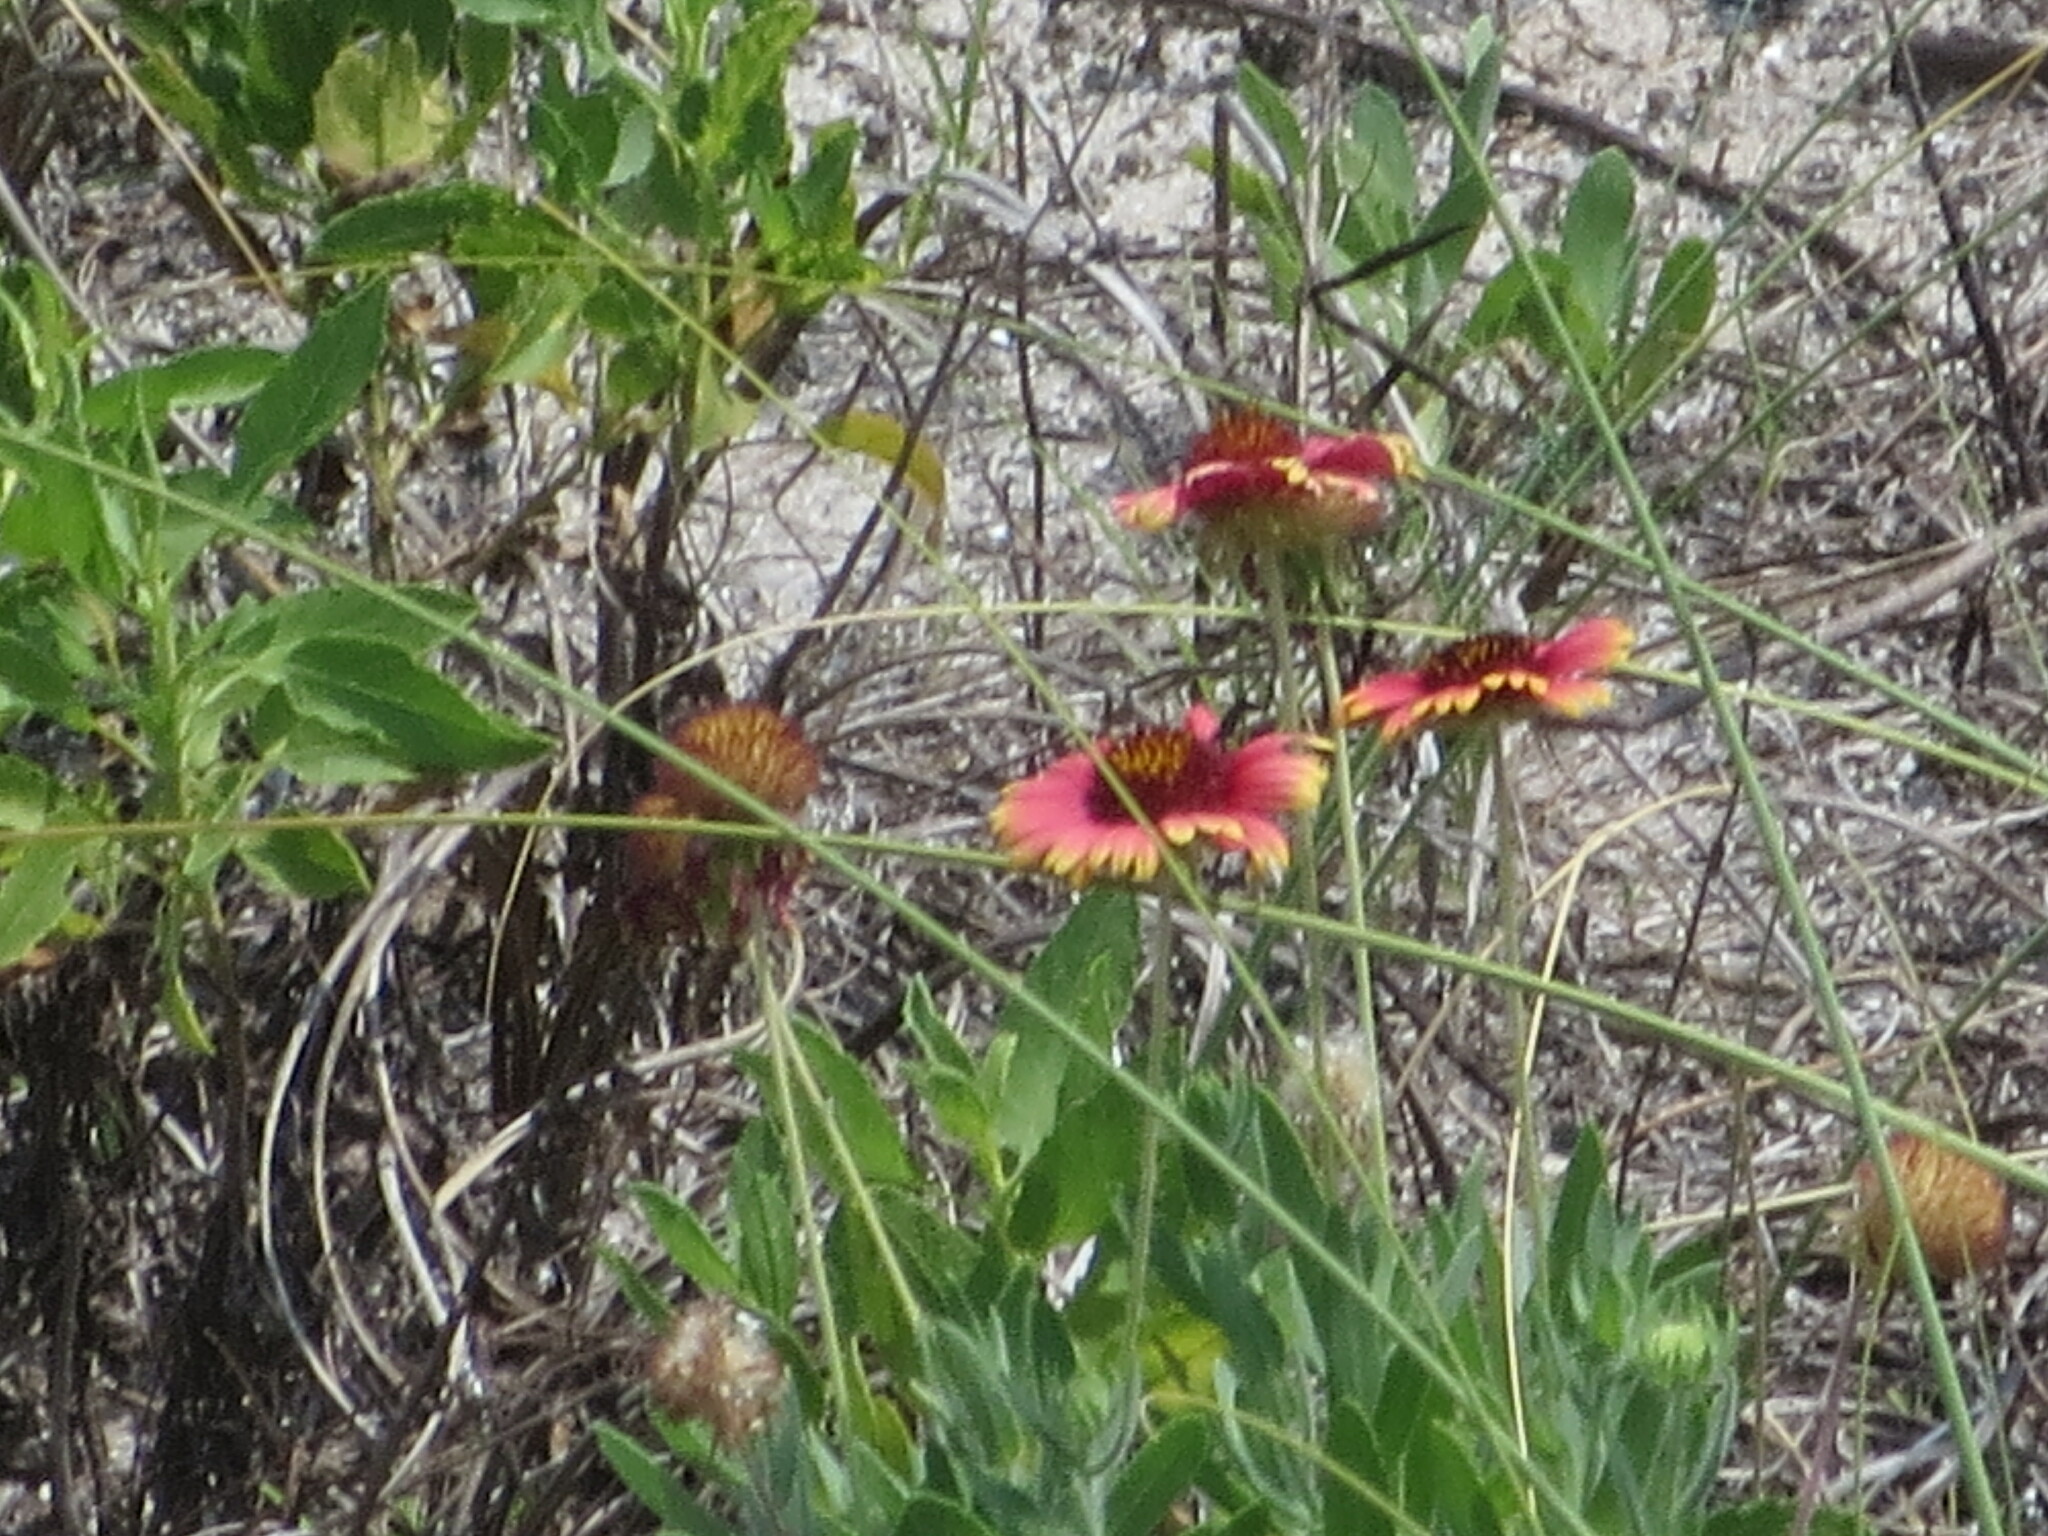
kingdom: Plantae
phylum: Tracheophyta
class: Magnoliopsida
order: Asterales
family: Asteraceae
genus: Gaillardia
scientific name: Gaillardia pulchella
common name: Firewheel
